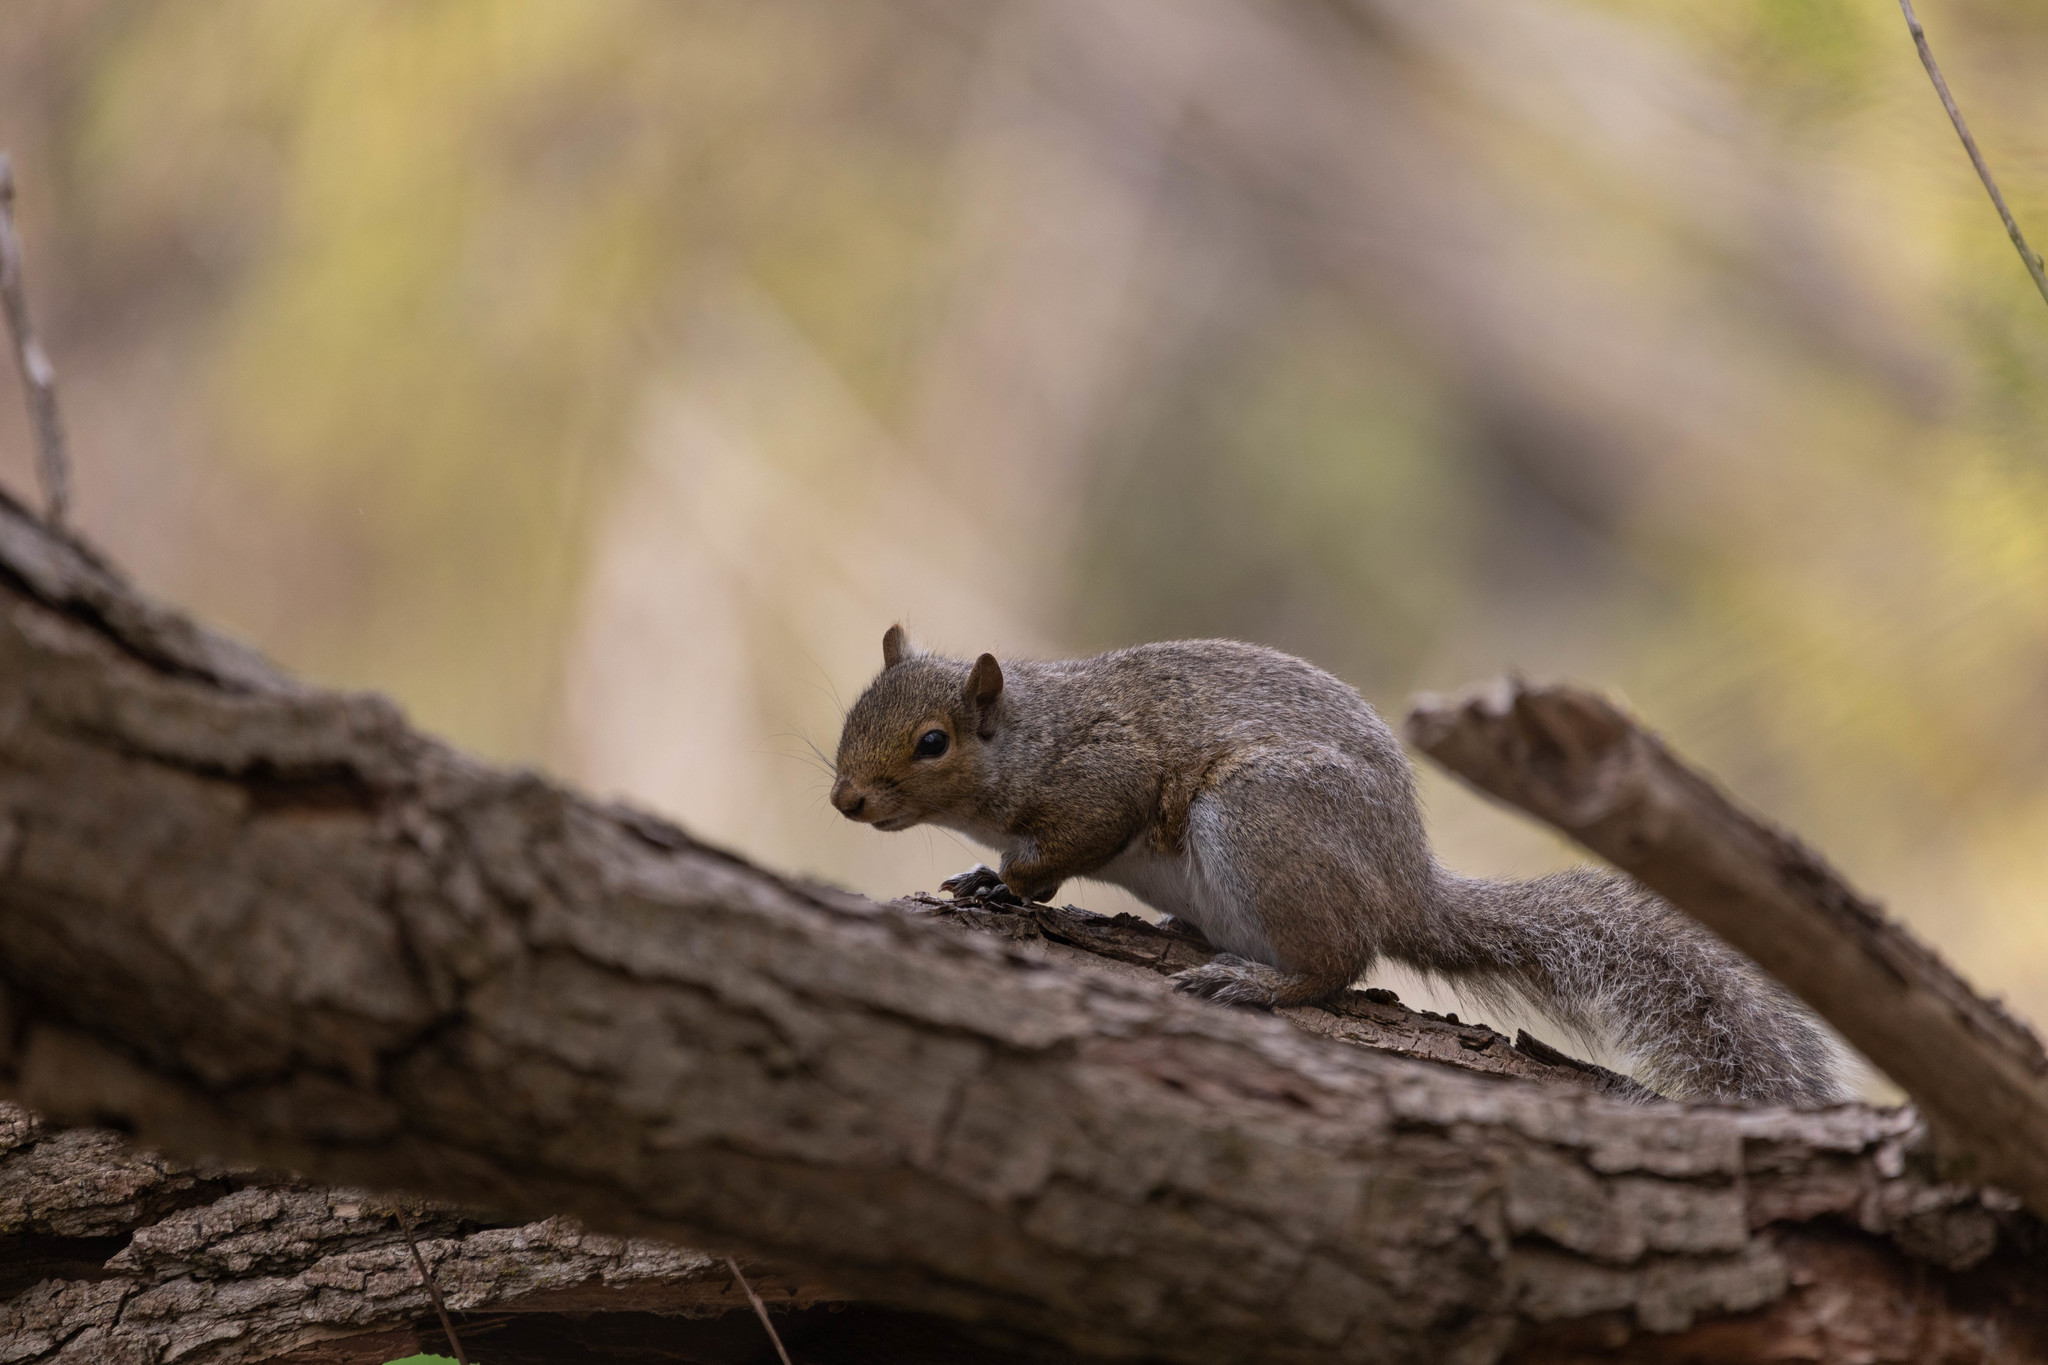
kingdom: Animalia
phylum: Chordata
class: Mammalia
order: Rodentia
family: Sciuridae
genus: Sciurus
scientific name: Sciurus carolinensis
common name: Eastern gray squirrel
